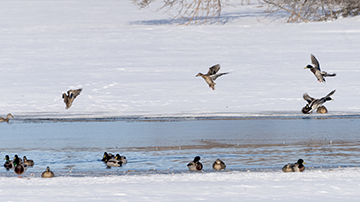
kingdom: Animalia
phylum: Chordata
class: Aves
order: Anseriformes
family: Anatidae
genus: Anas
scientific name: Anas platyrhynchos
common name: Mallard
